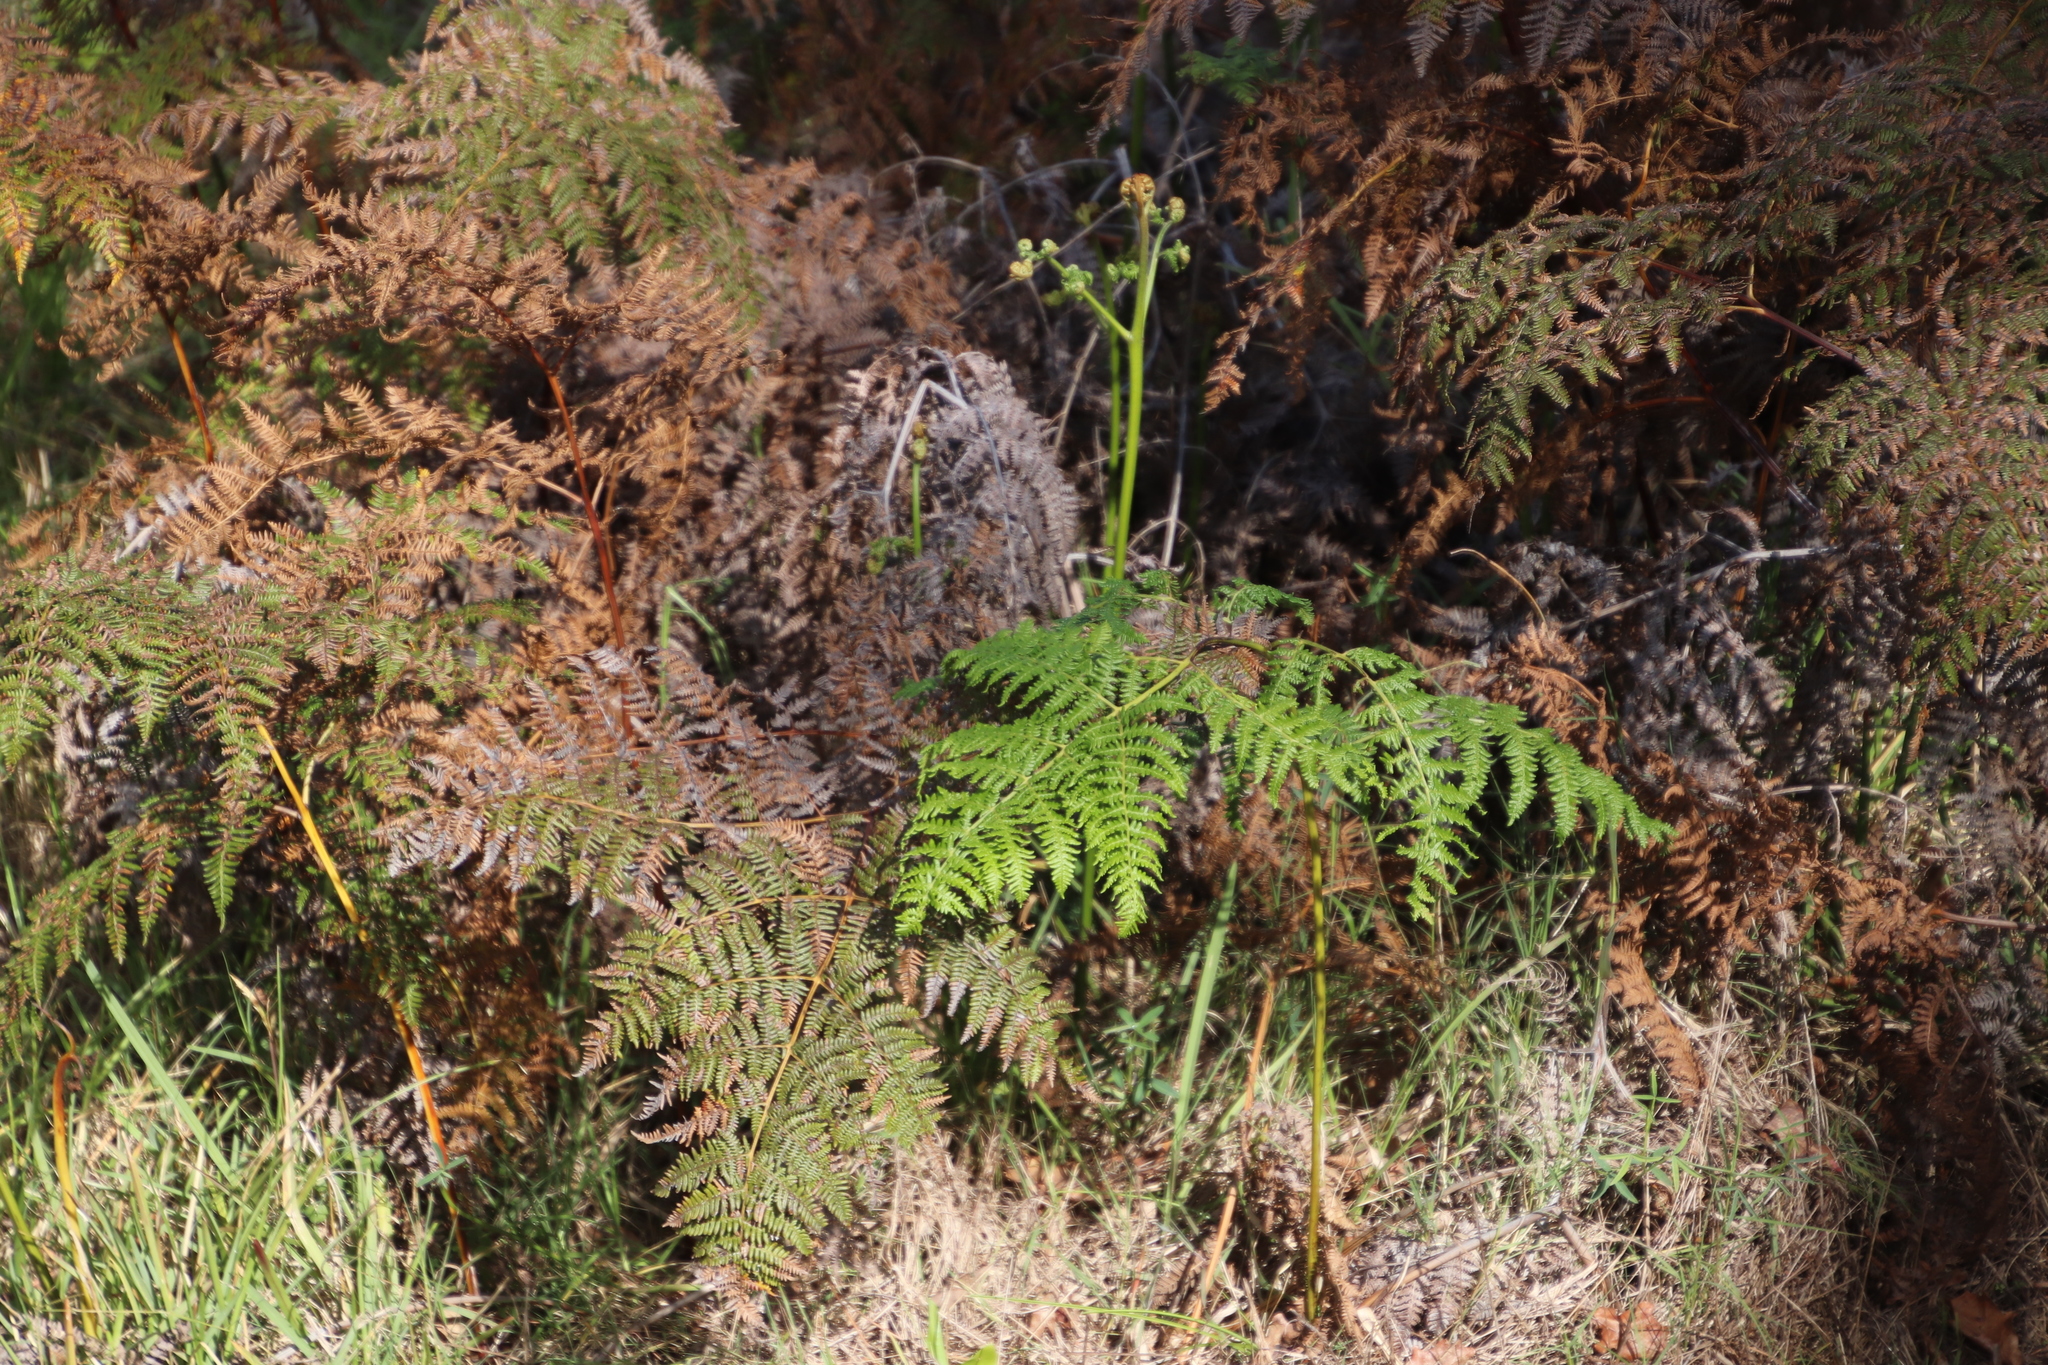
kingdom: Plantae
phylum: Tracheophyta
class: Polypodiopsida
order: Polypodiales
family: Dennstaedtiaceae
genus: Pteridium
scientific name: Pteridium aquilinum
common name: Bracken
